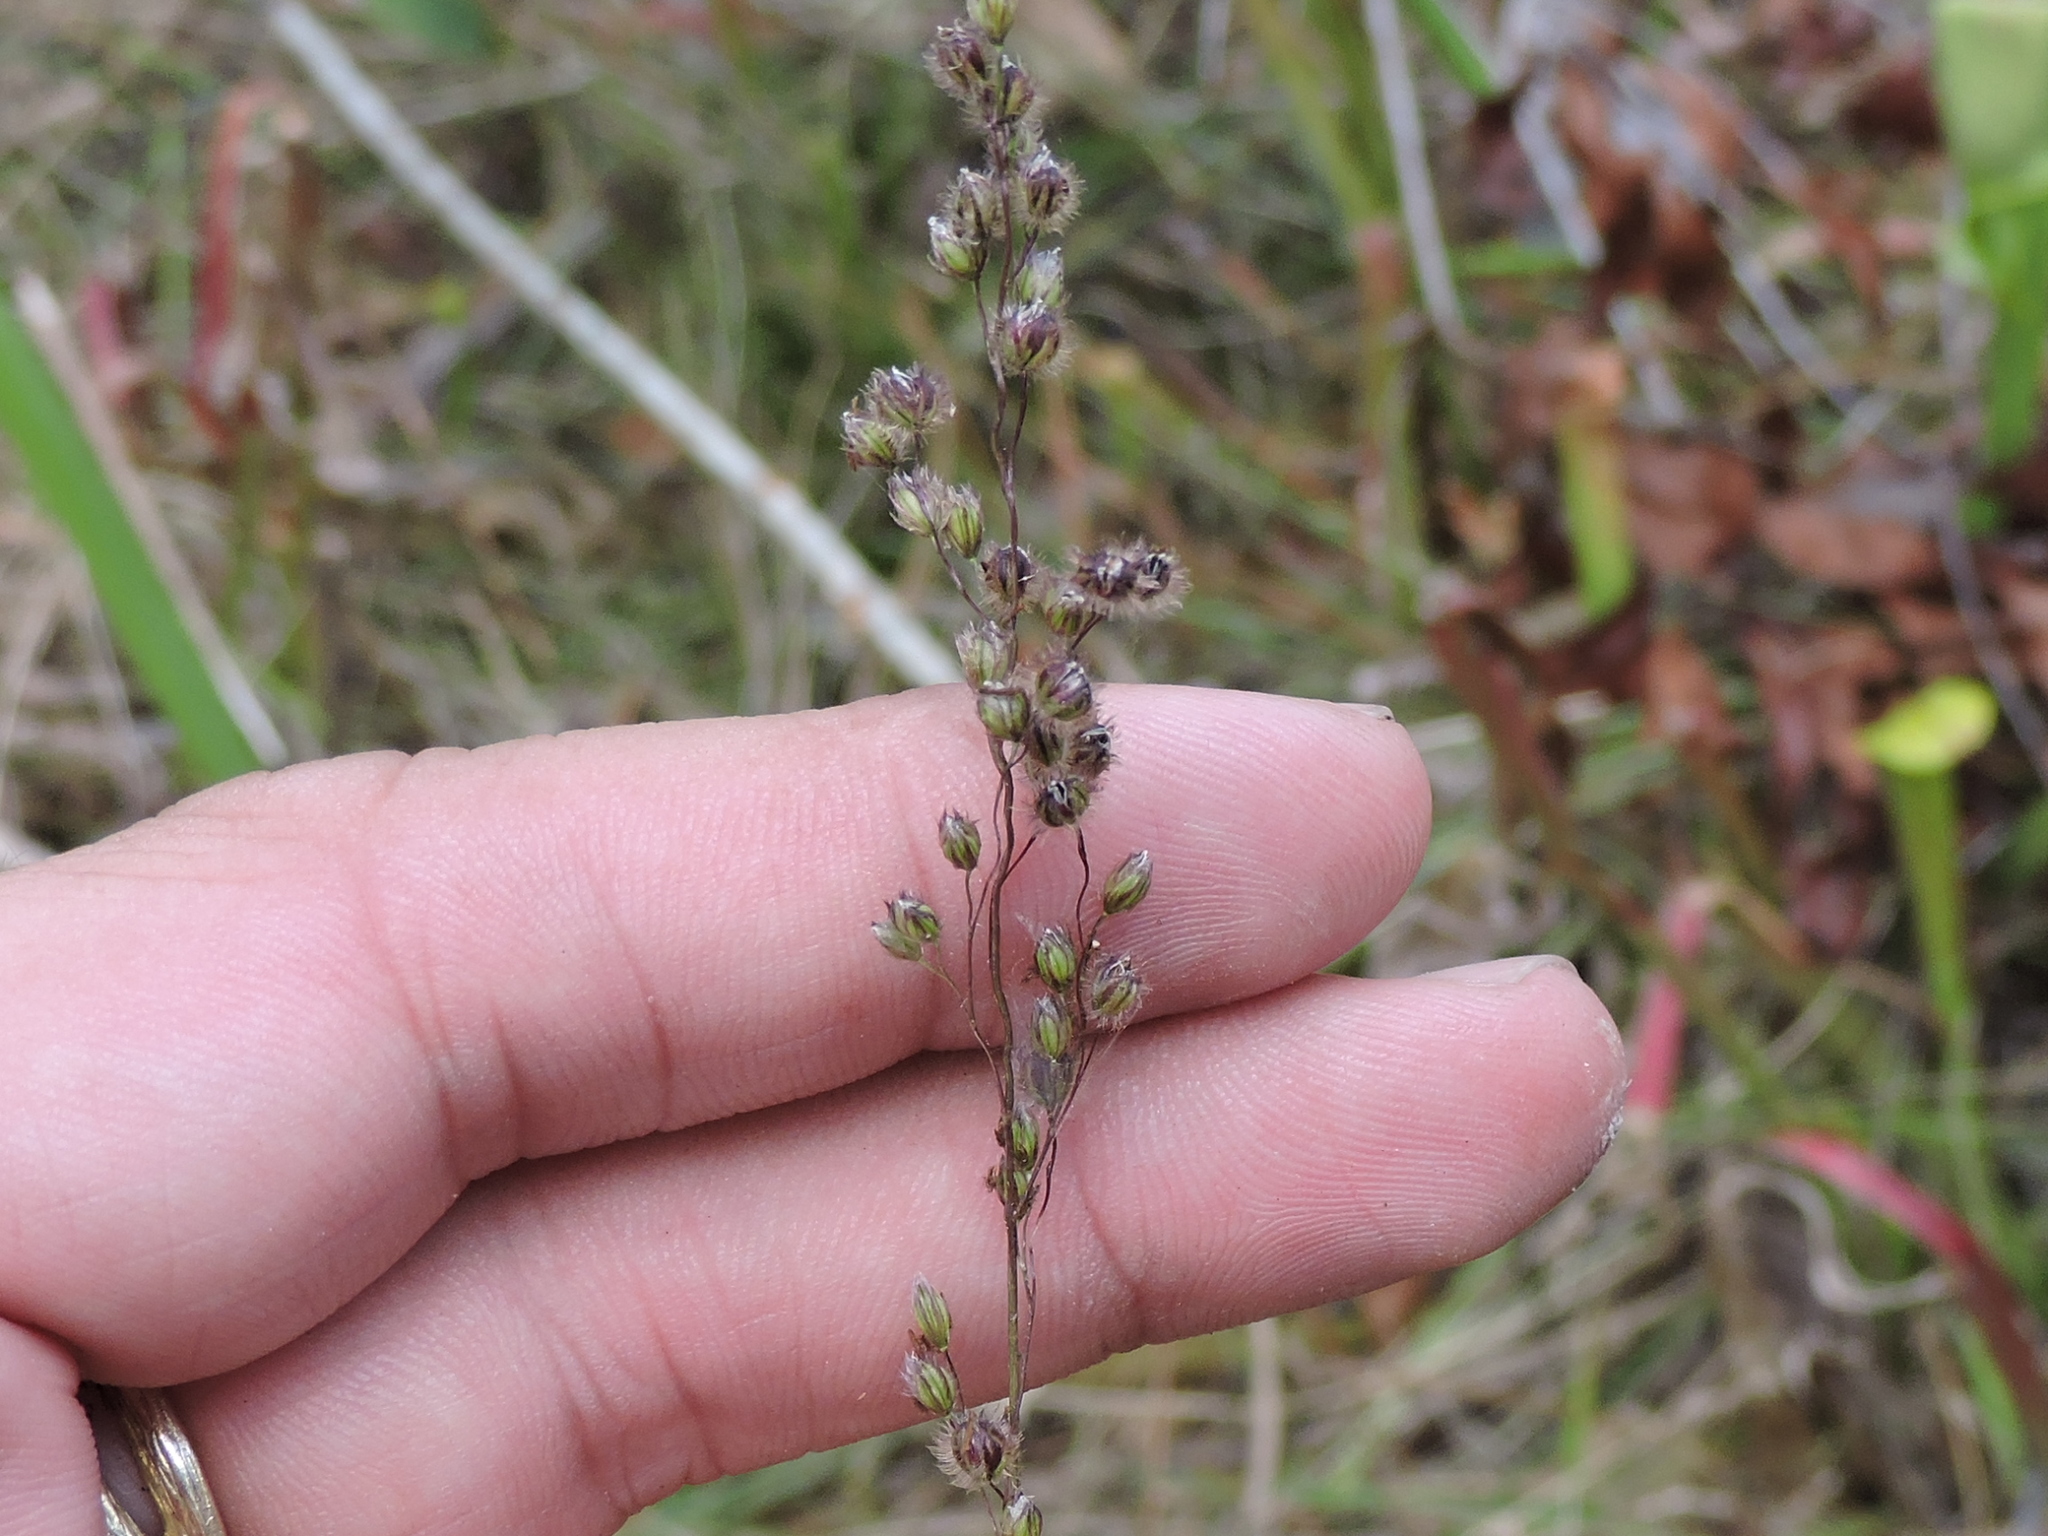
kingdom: Plantae
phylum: Tracheophyta
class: Liliopsida
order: Poales
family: Poaceae
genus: Anthenantia
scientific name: Anthenantia villosa
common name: Green silkyscale
